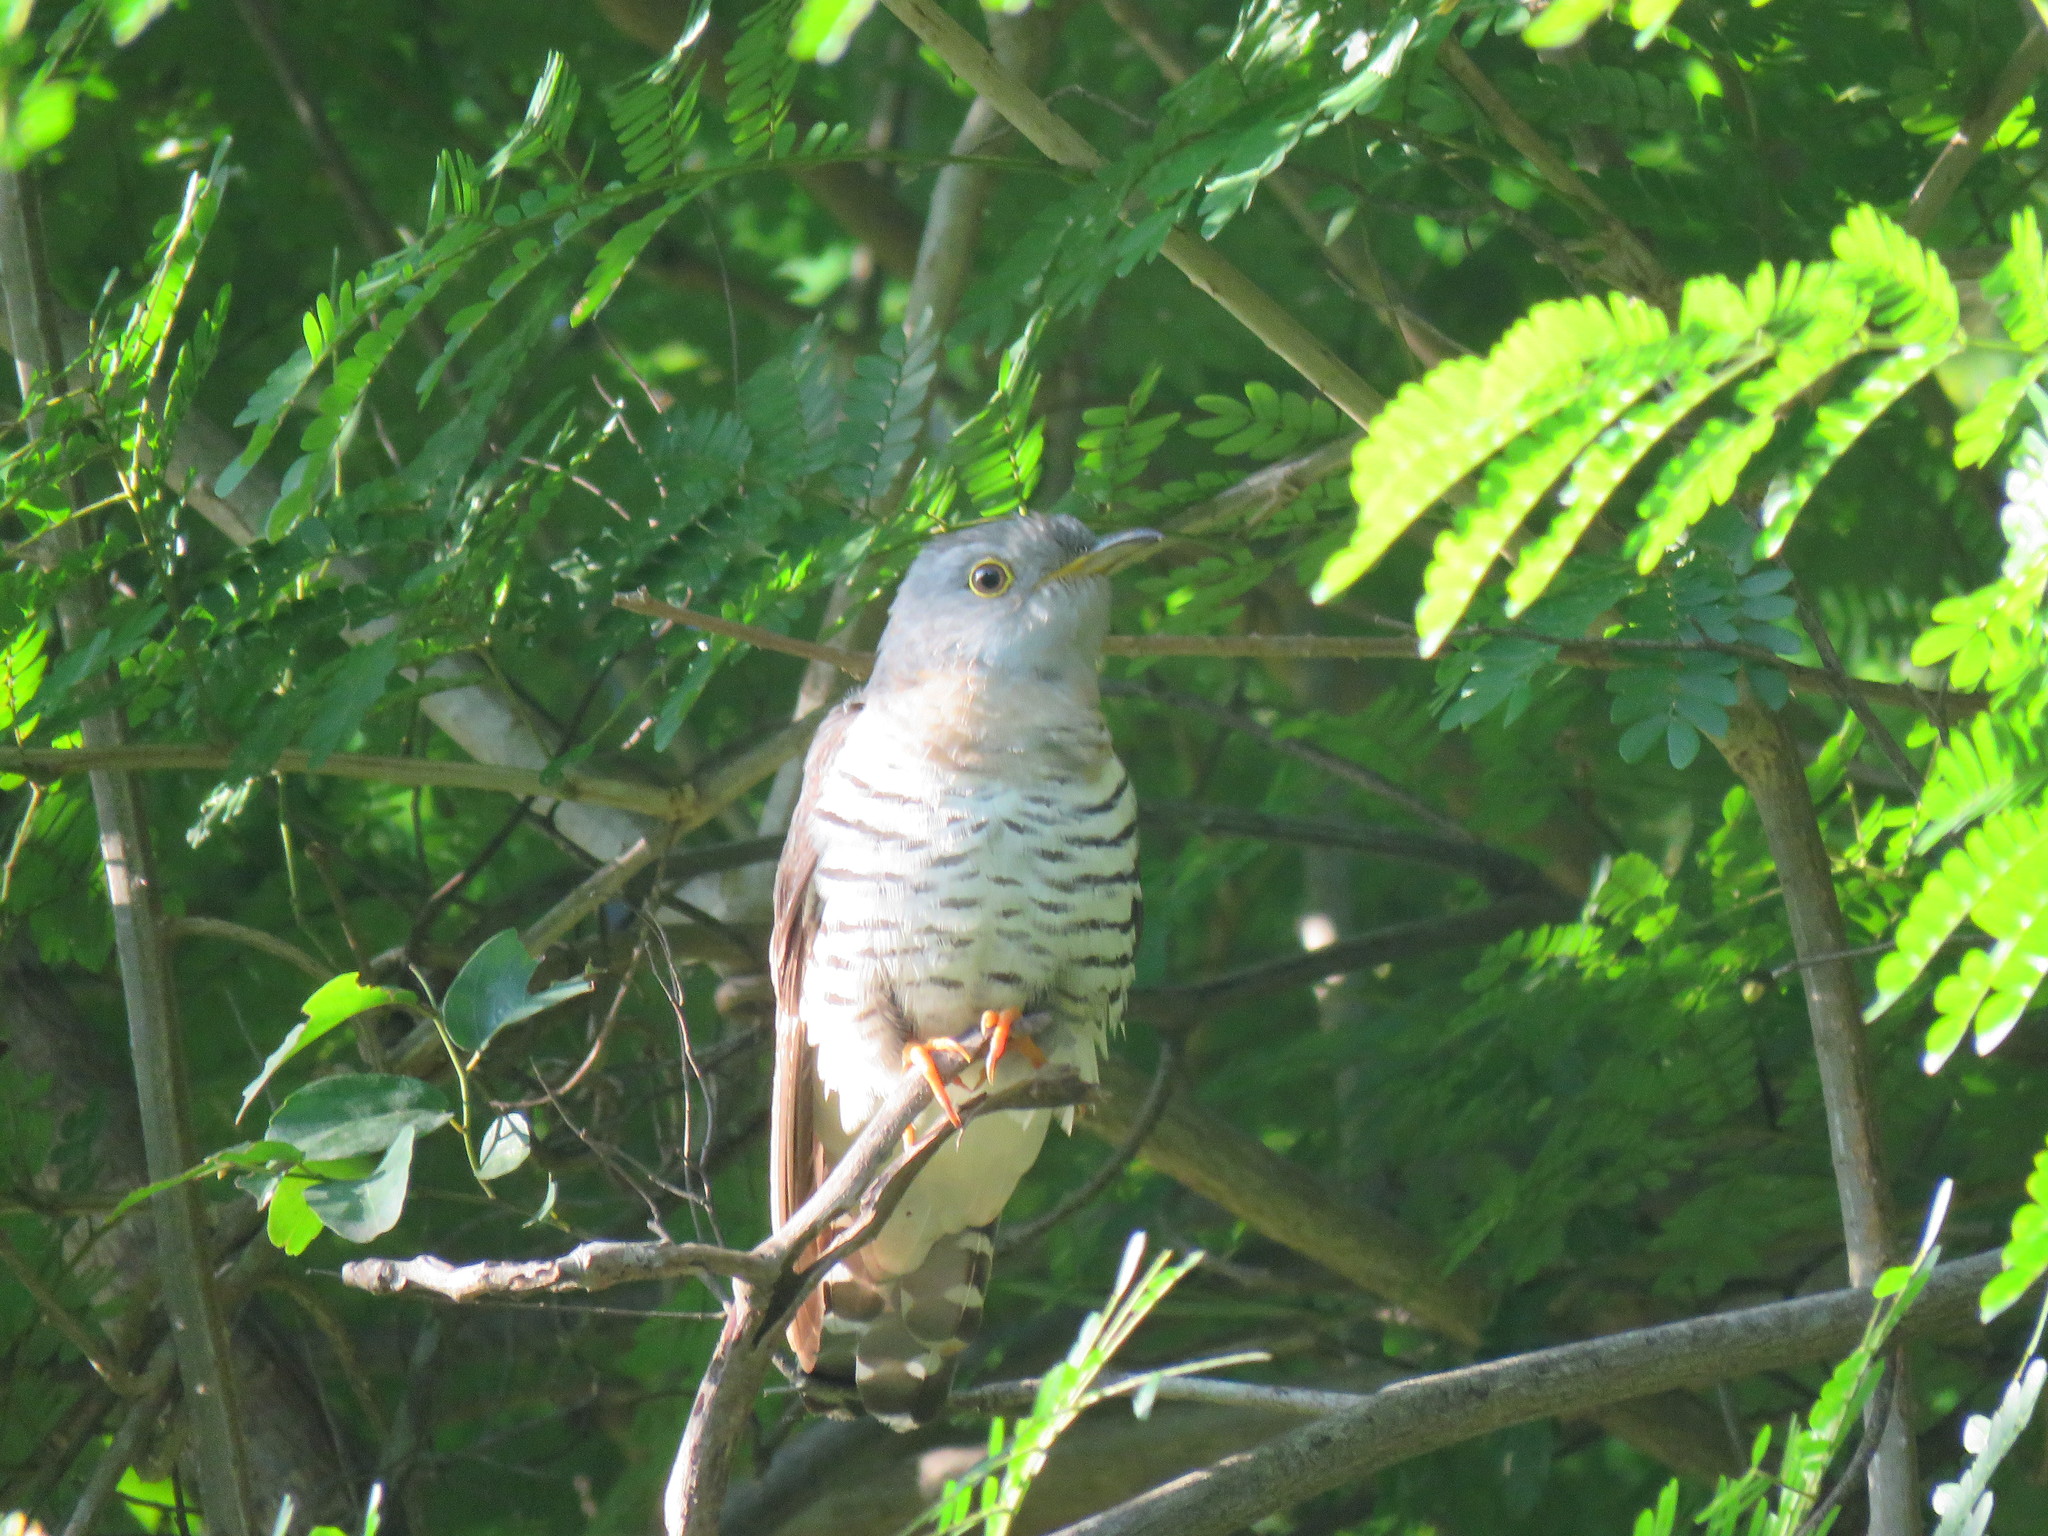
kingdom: Animalia
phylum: Chordata
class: Aves
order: Cuculiformes
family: Cuculidae
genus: Cuculus
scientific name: Cuculus micropterus
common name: Indian cuckoo
